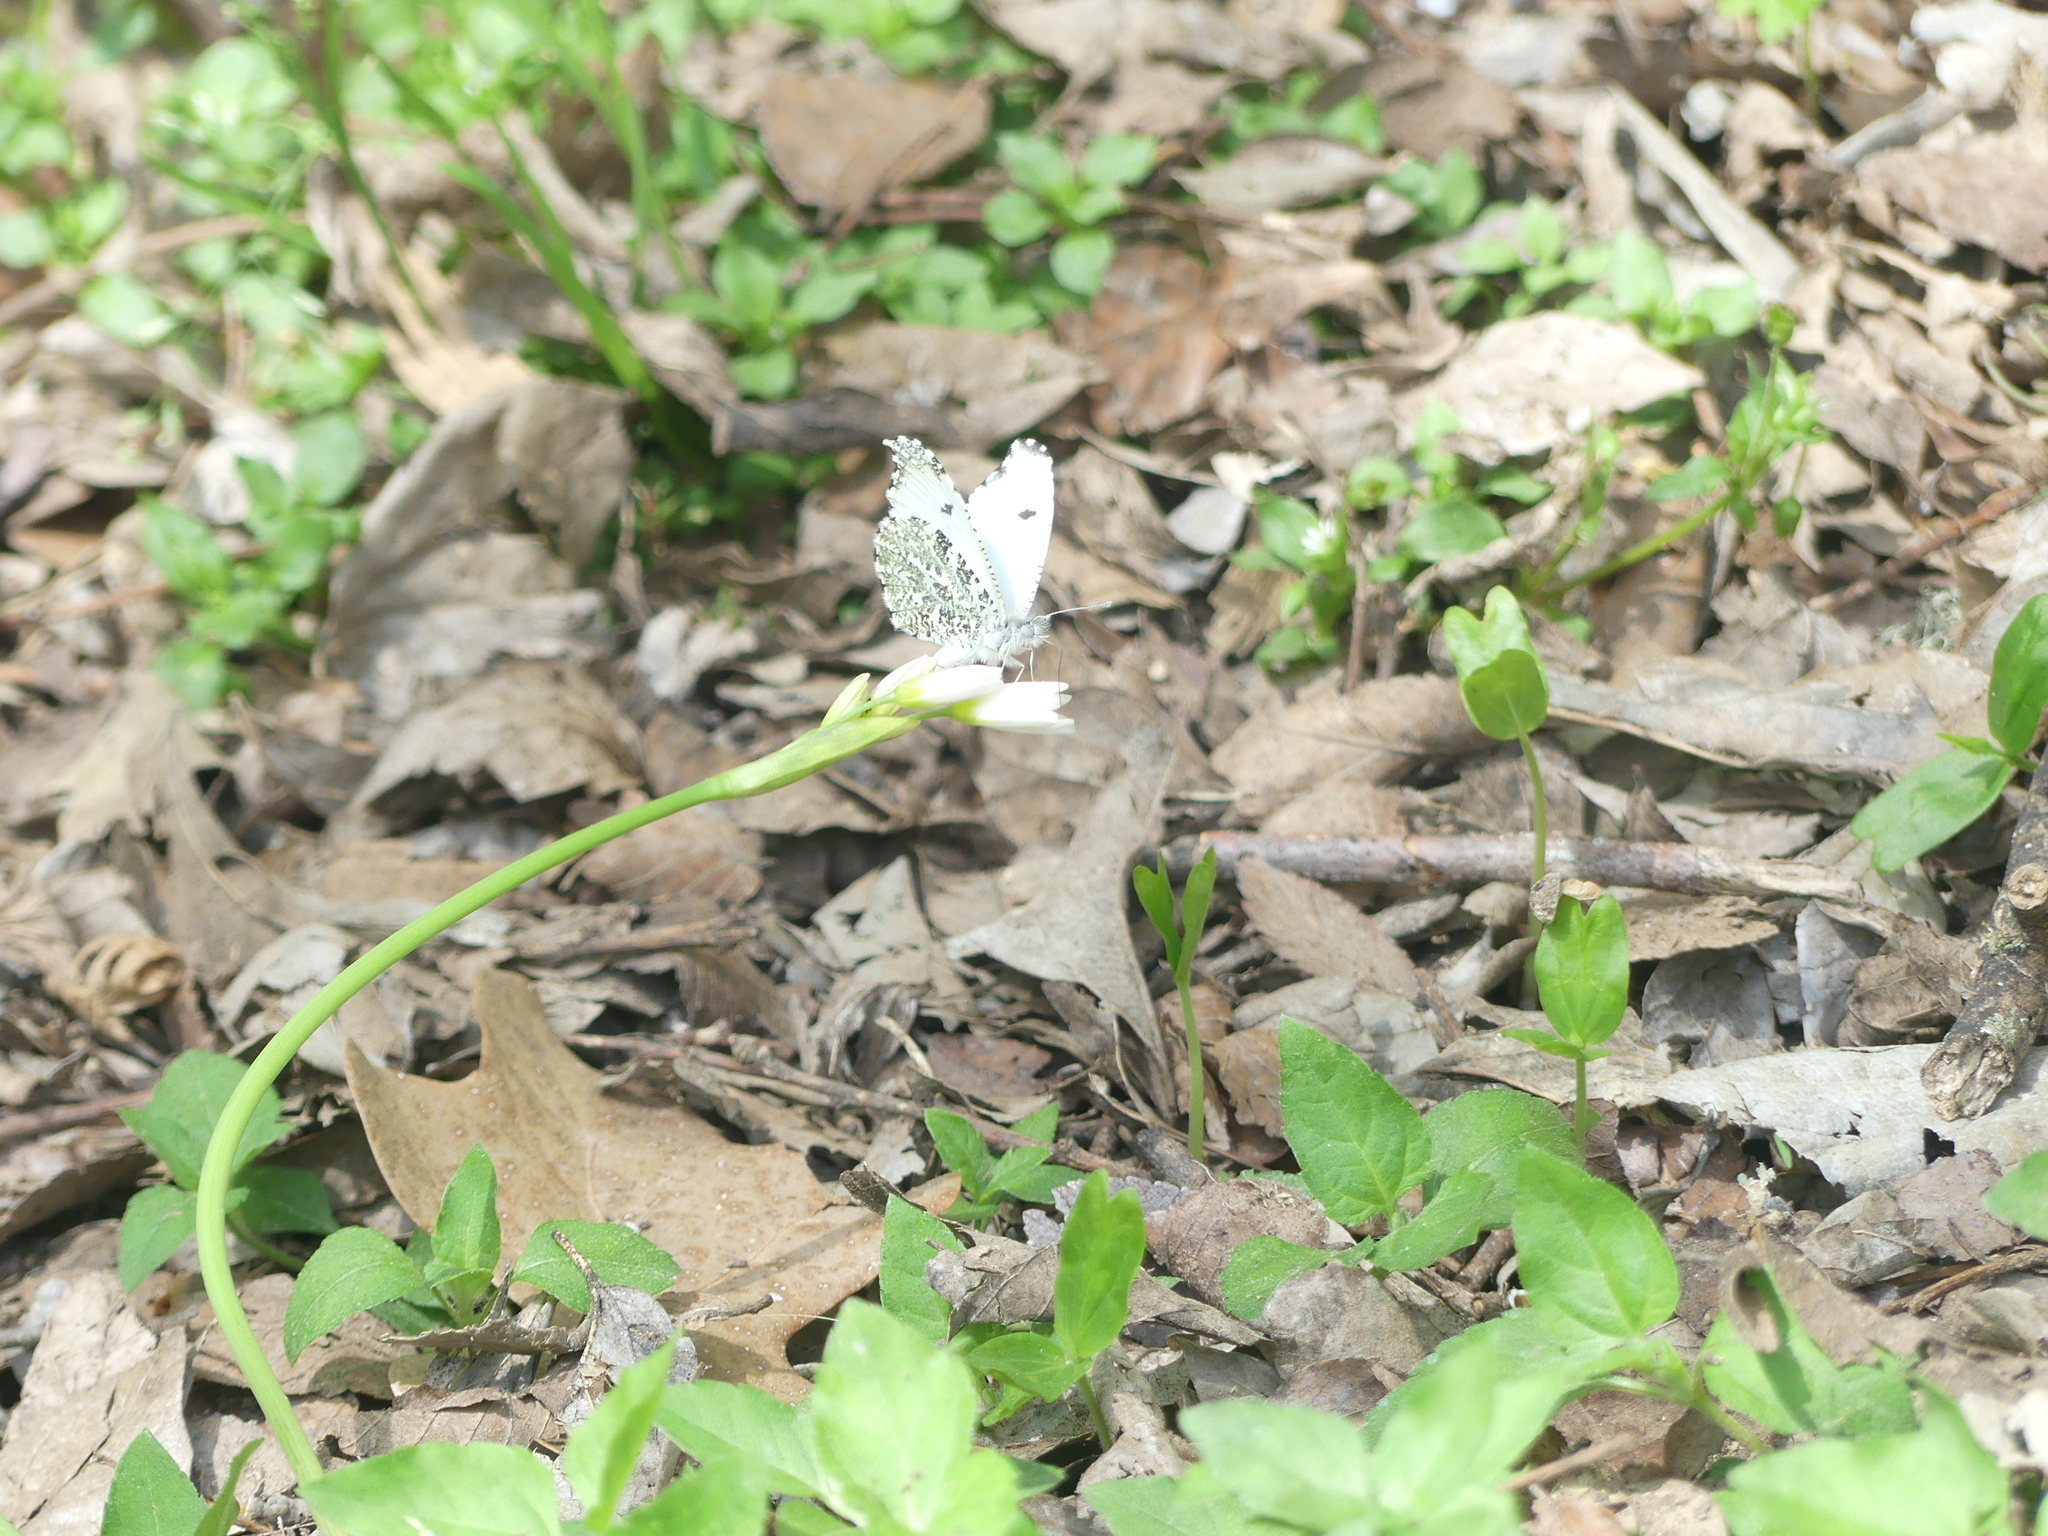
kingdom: Animalia
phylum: Arthropoda
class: Insecta
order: Lepidoptera
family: Pieridae
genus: Anthocharis
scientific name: Anthocharis midea
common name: Falcate orangetip
